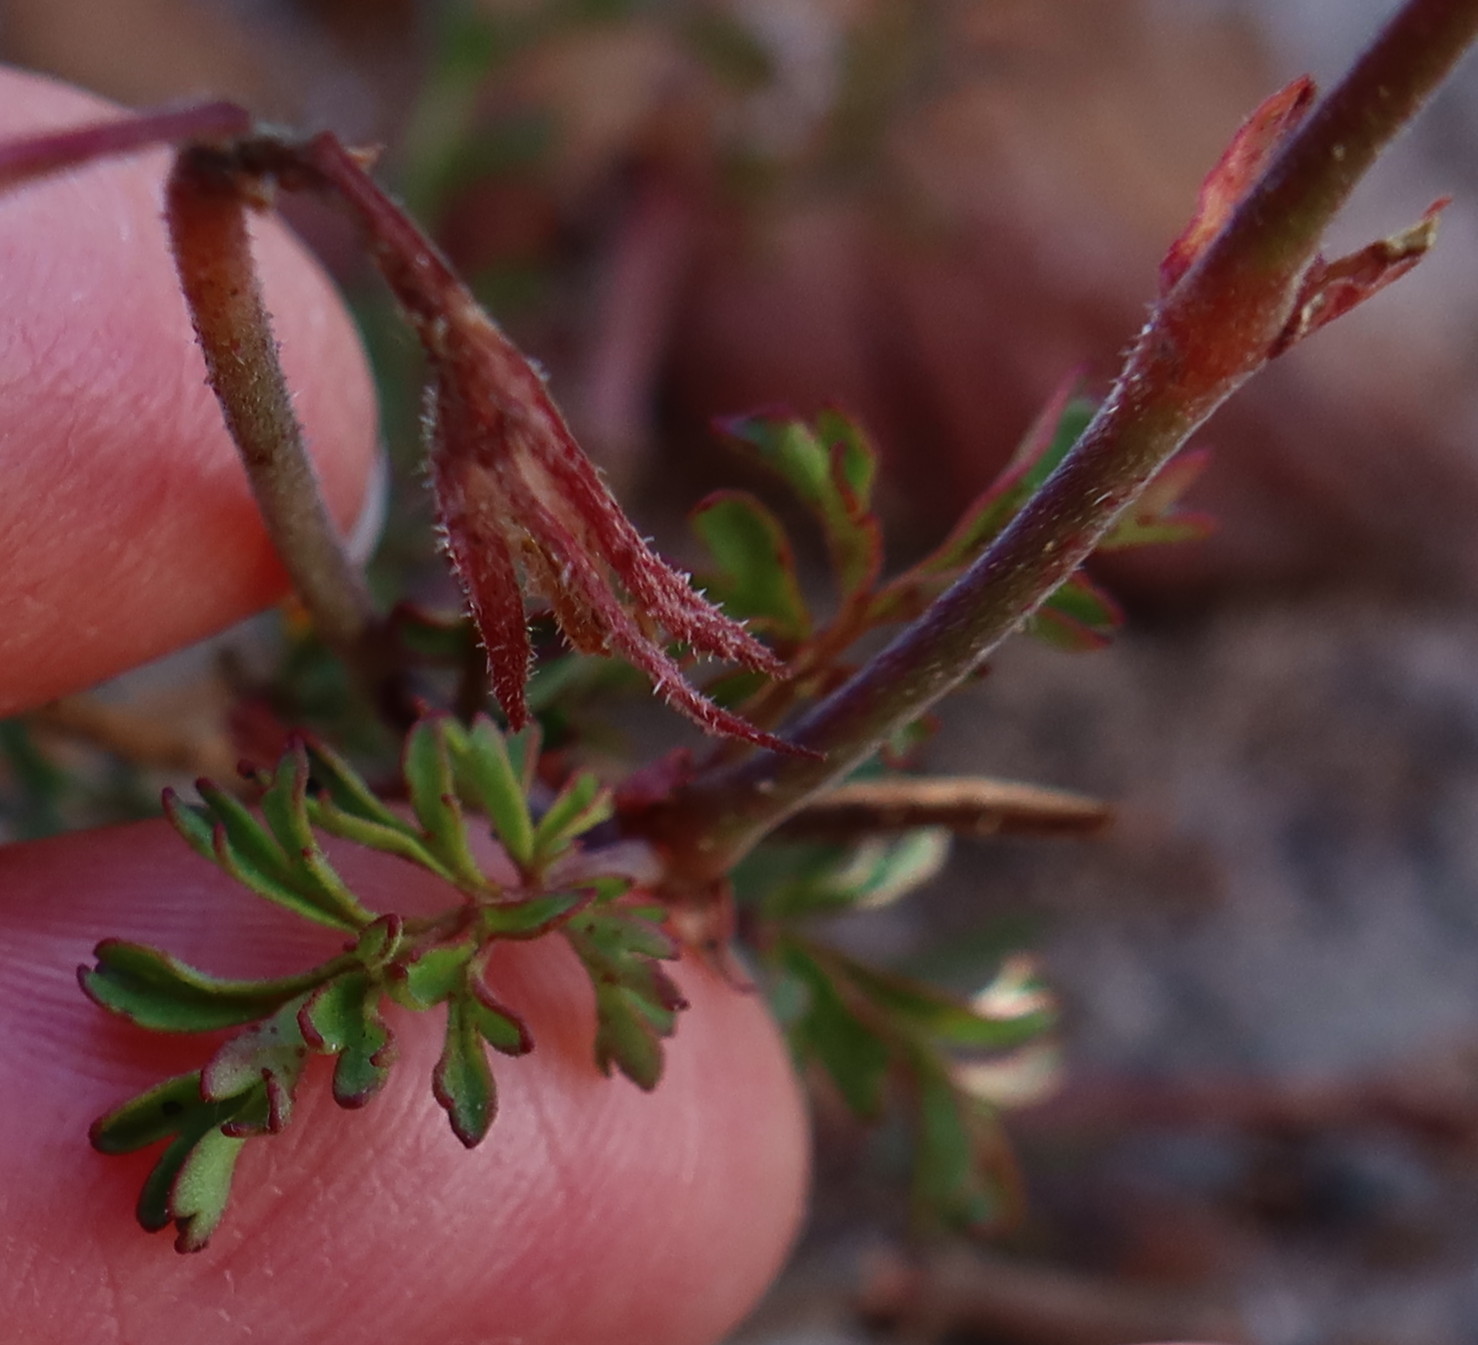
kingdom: Plantae
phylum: Tracheophyta
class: Magnoliopsida
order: Geraniales
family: Geraniaceae
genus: Pelargonium
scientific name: Pelargonium suburbanum
